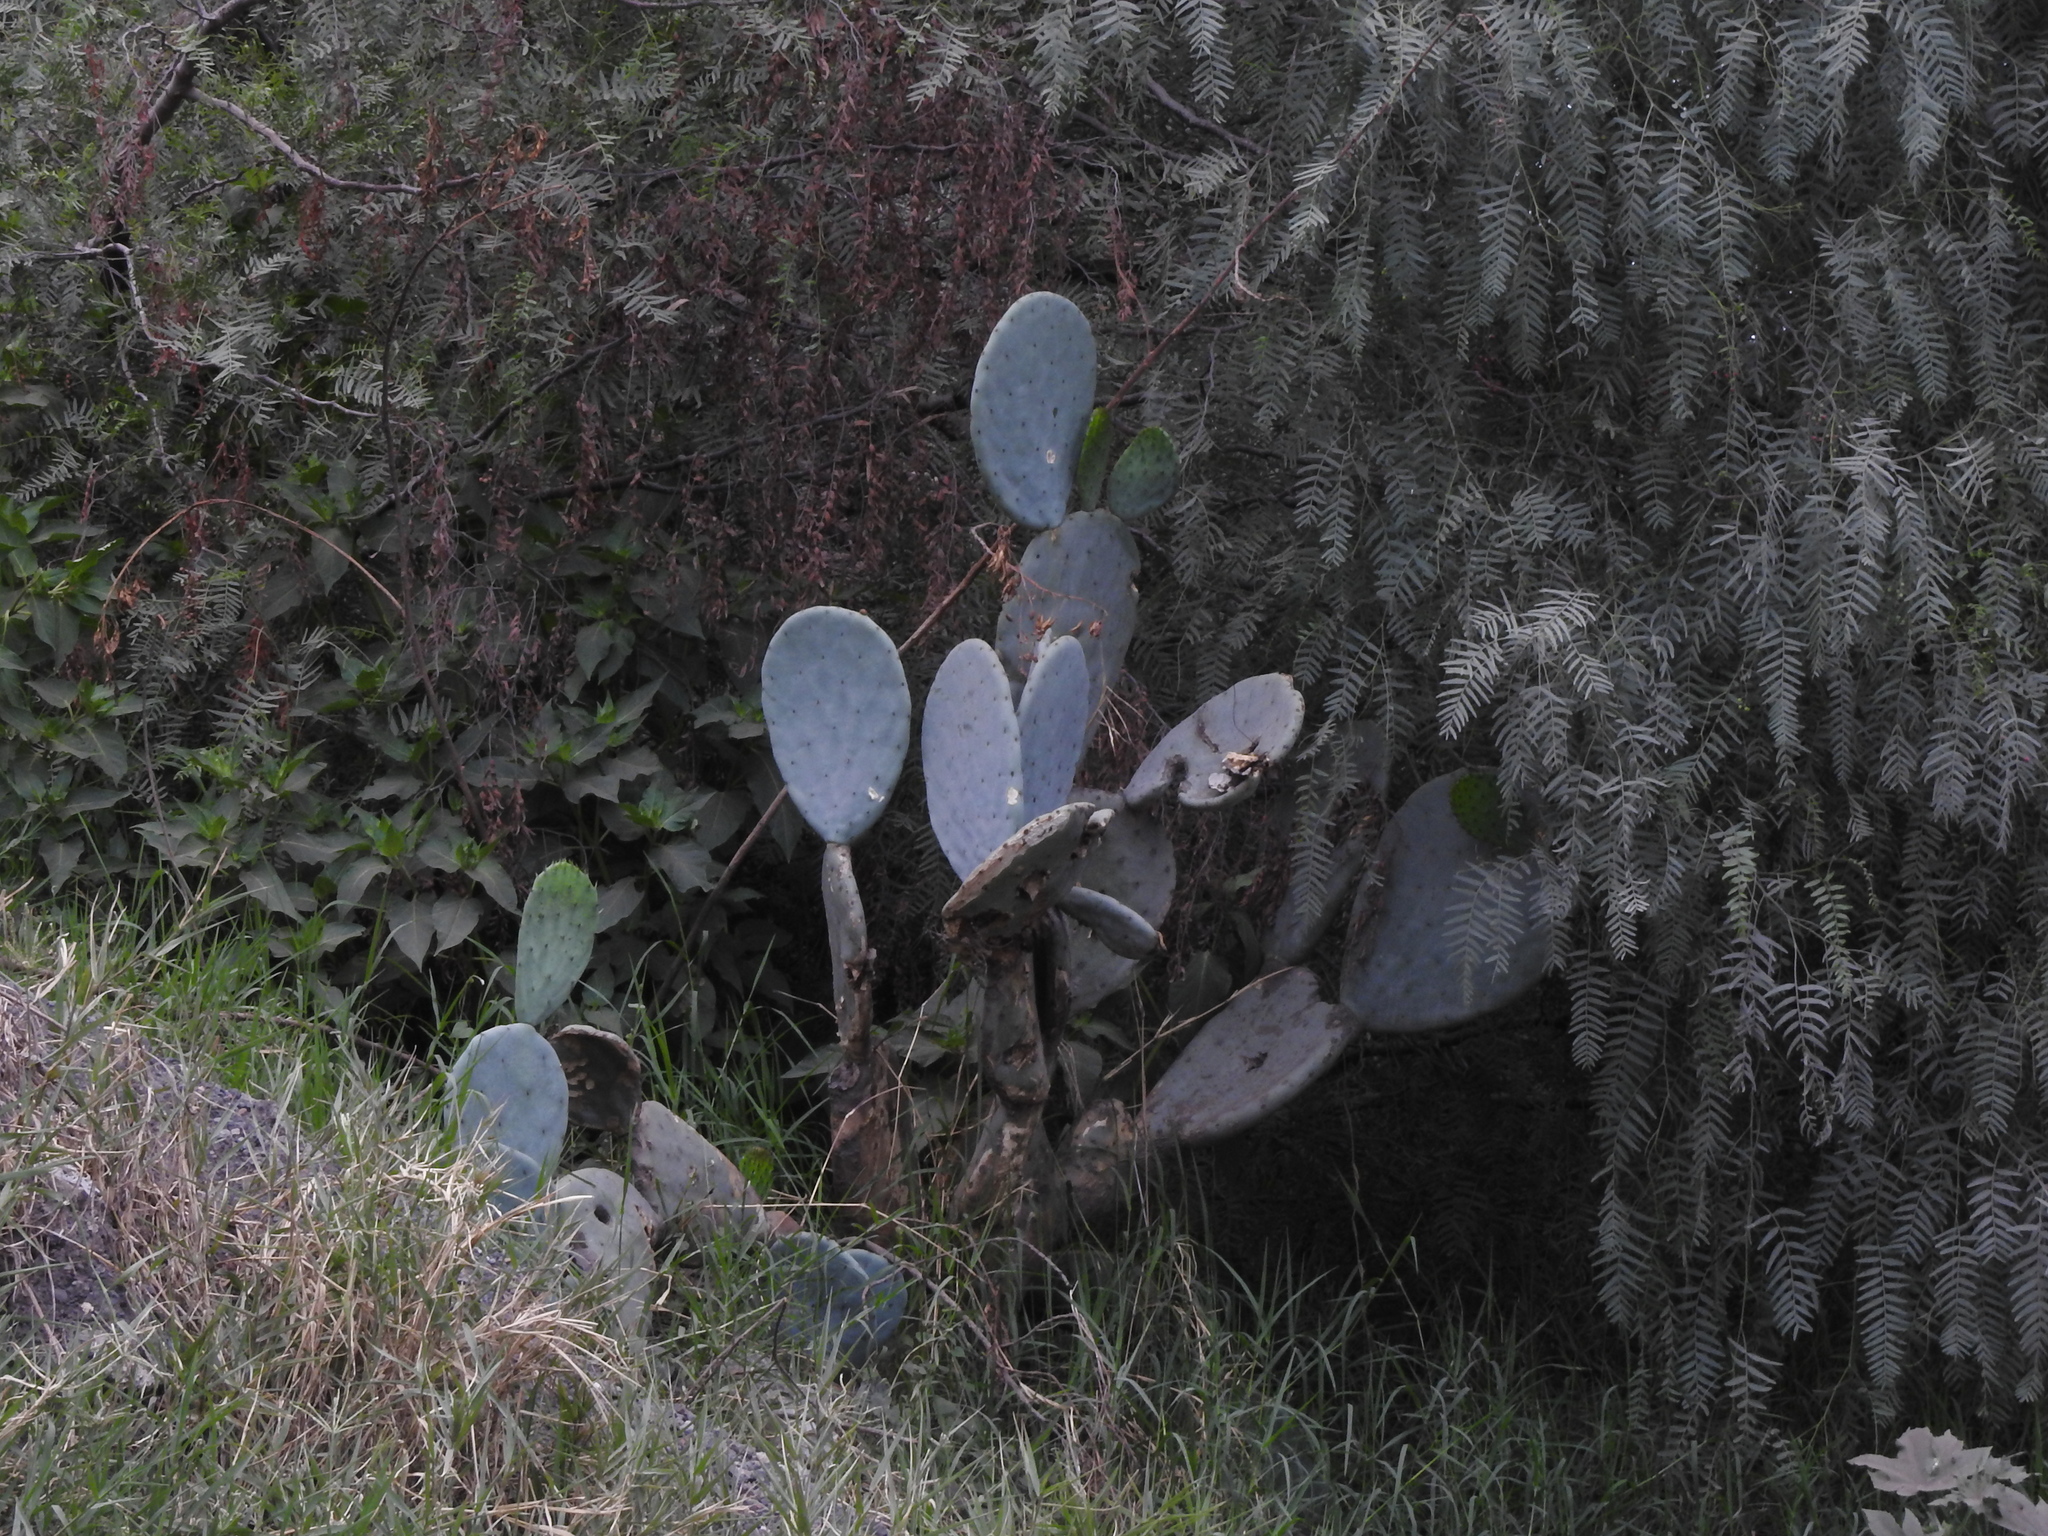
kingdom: Plantae
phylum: Tracheophyta
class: Magnoliopsida
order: Caryophyllales
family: Cactaceae
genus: Opuntia
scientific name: Opuntia robusta
